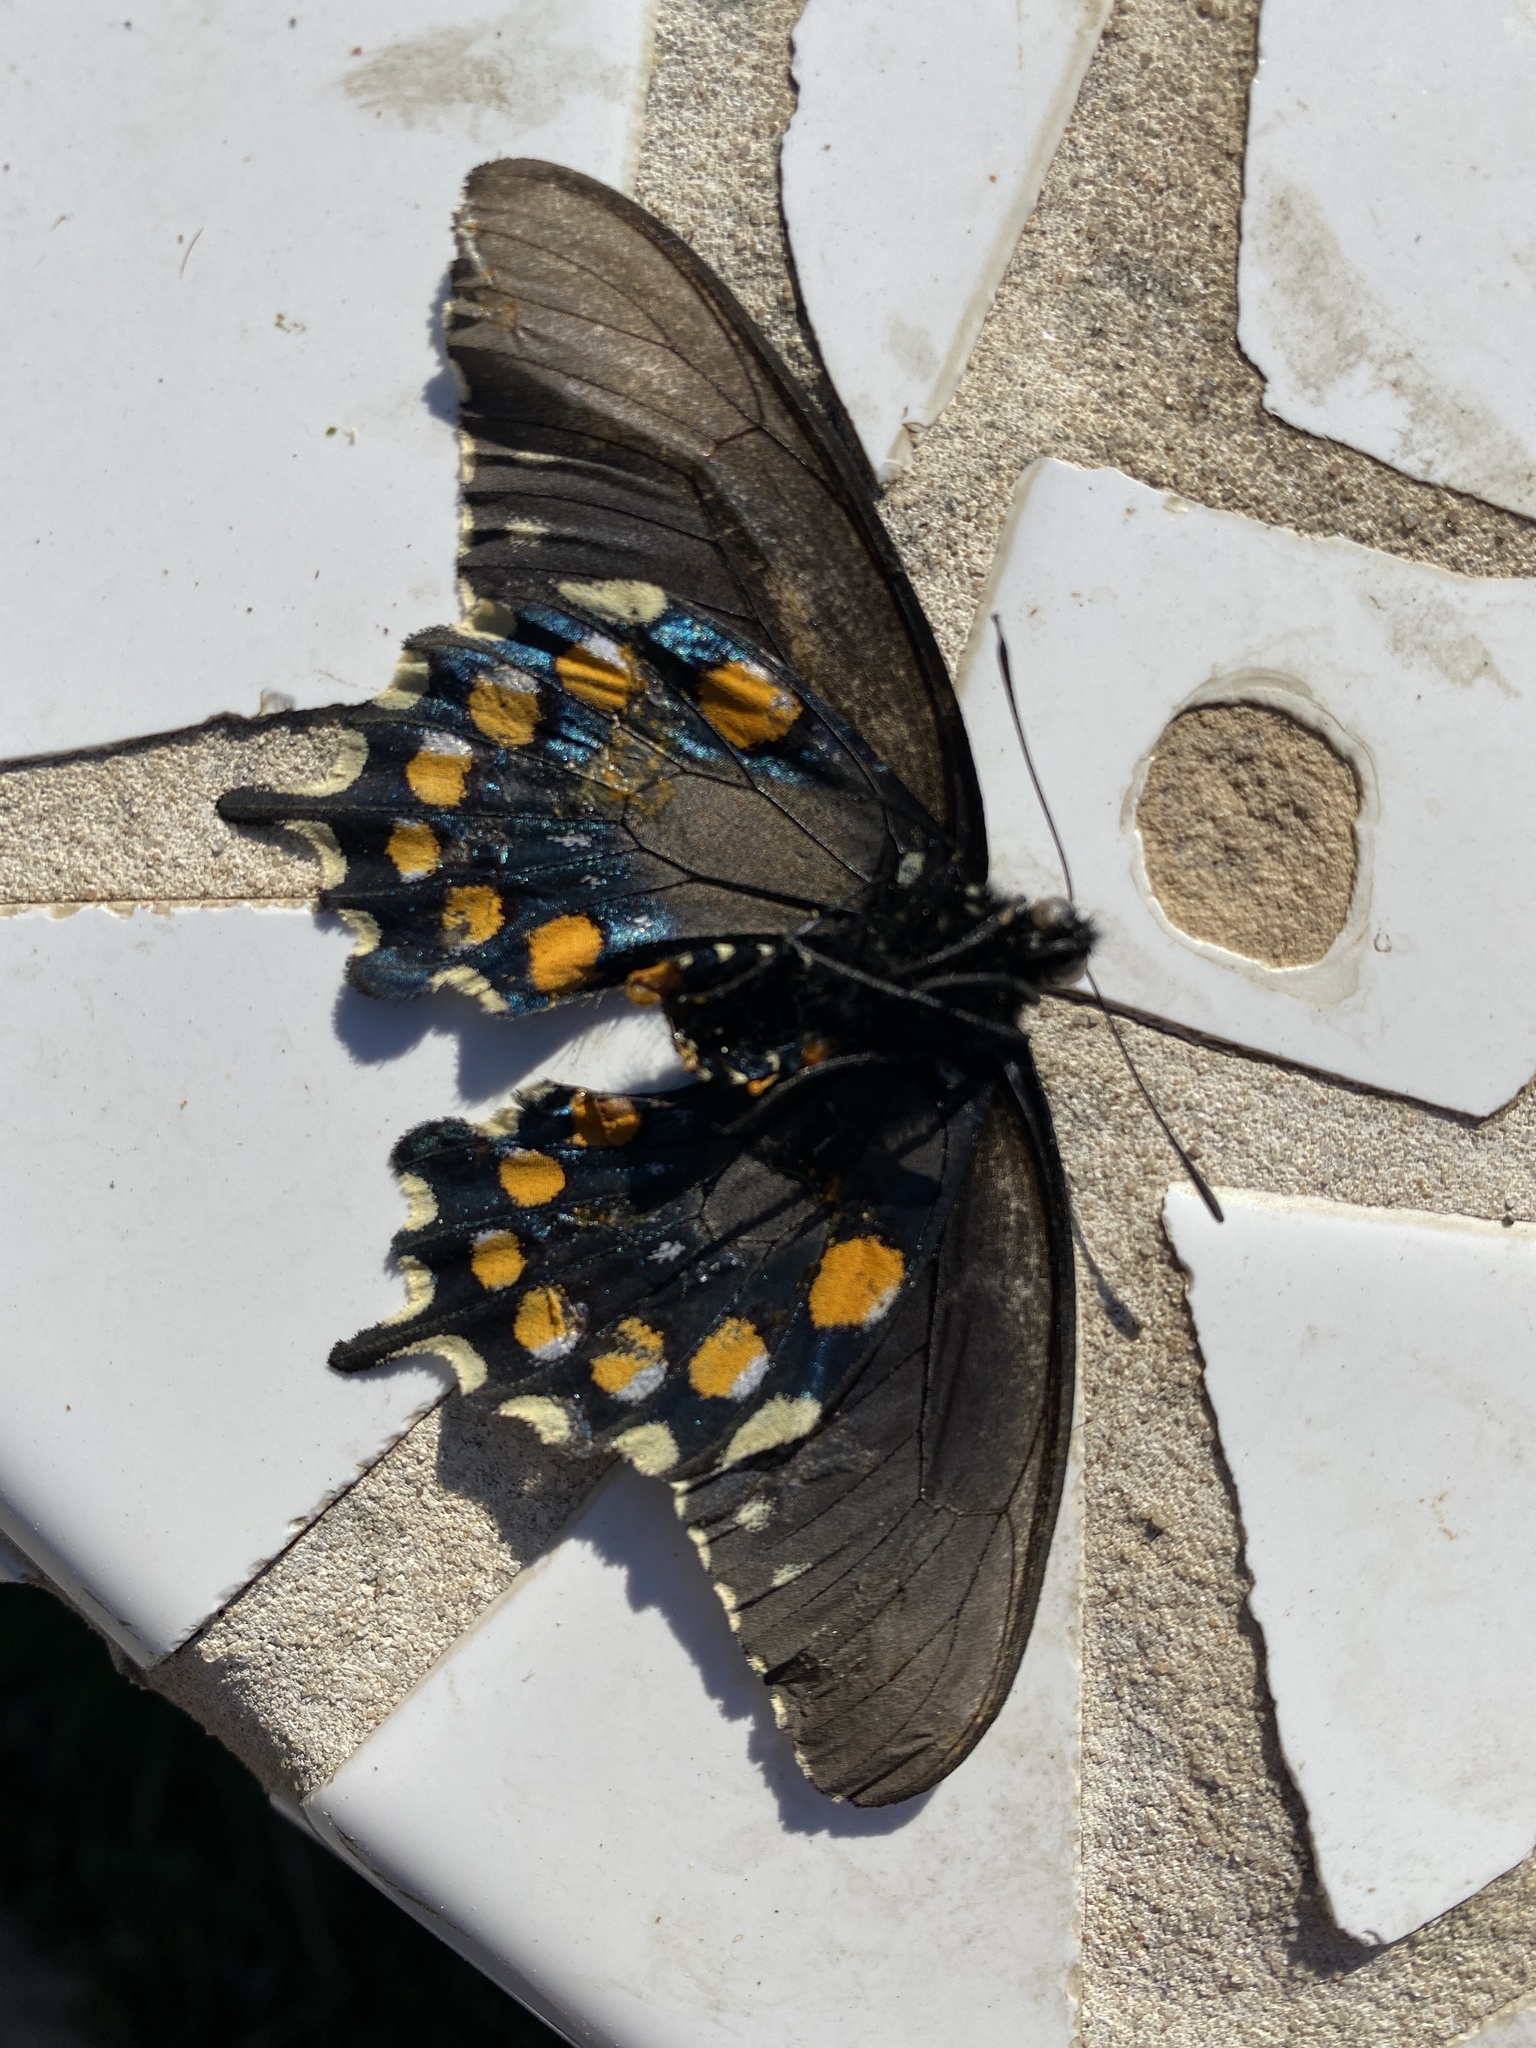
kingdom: Animalia
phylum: Arthropoda
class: Insecta
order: Lepidoptera
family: Papilionidae
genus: Battus
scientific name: Battus philenor
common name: Pipevine swallowtail
